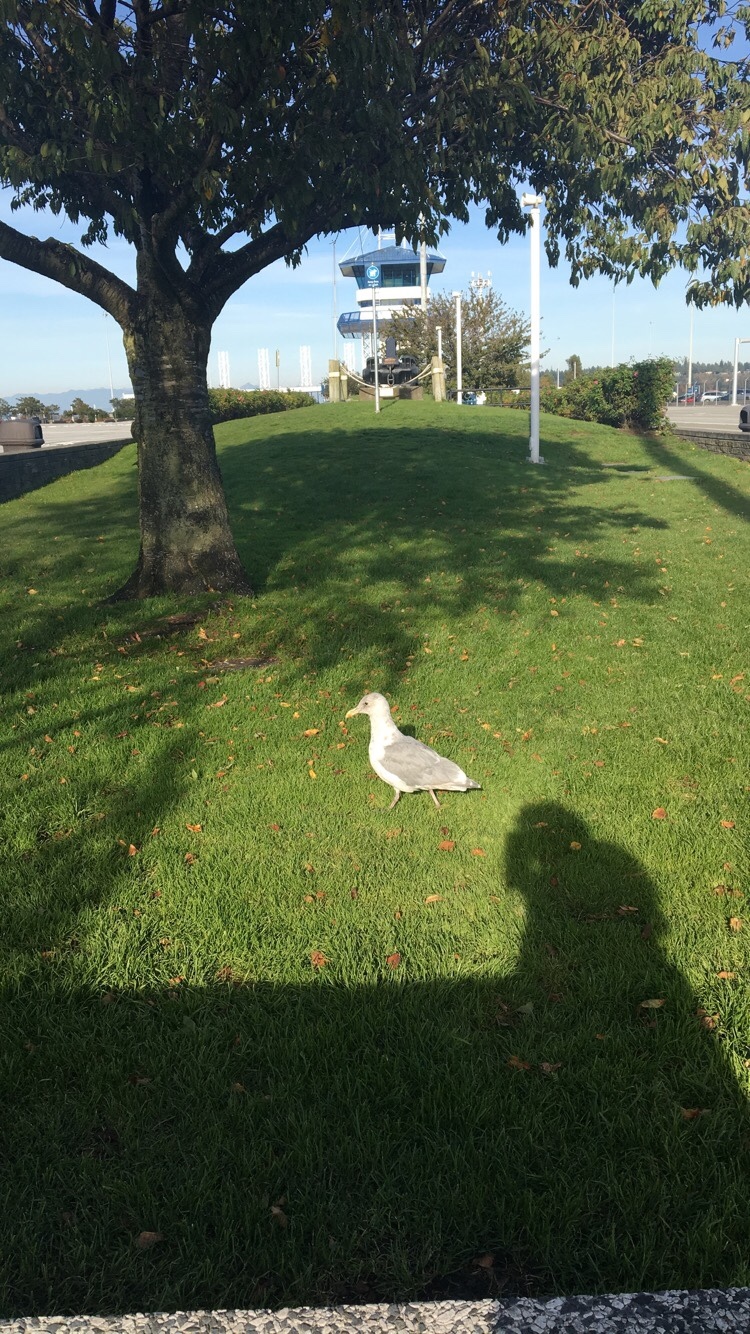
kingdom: Animalia
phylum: Chordata
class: Aves
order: Charadriiformes
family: Laridae
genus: Larus
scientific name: Larus glaucescens
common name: Glaucous-winged gull
